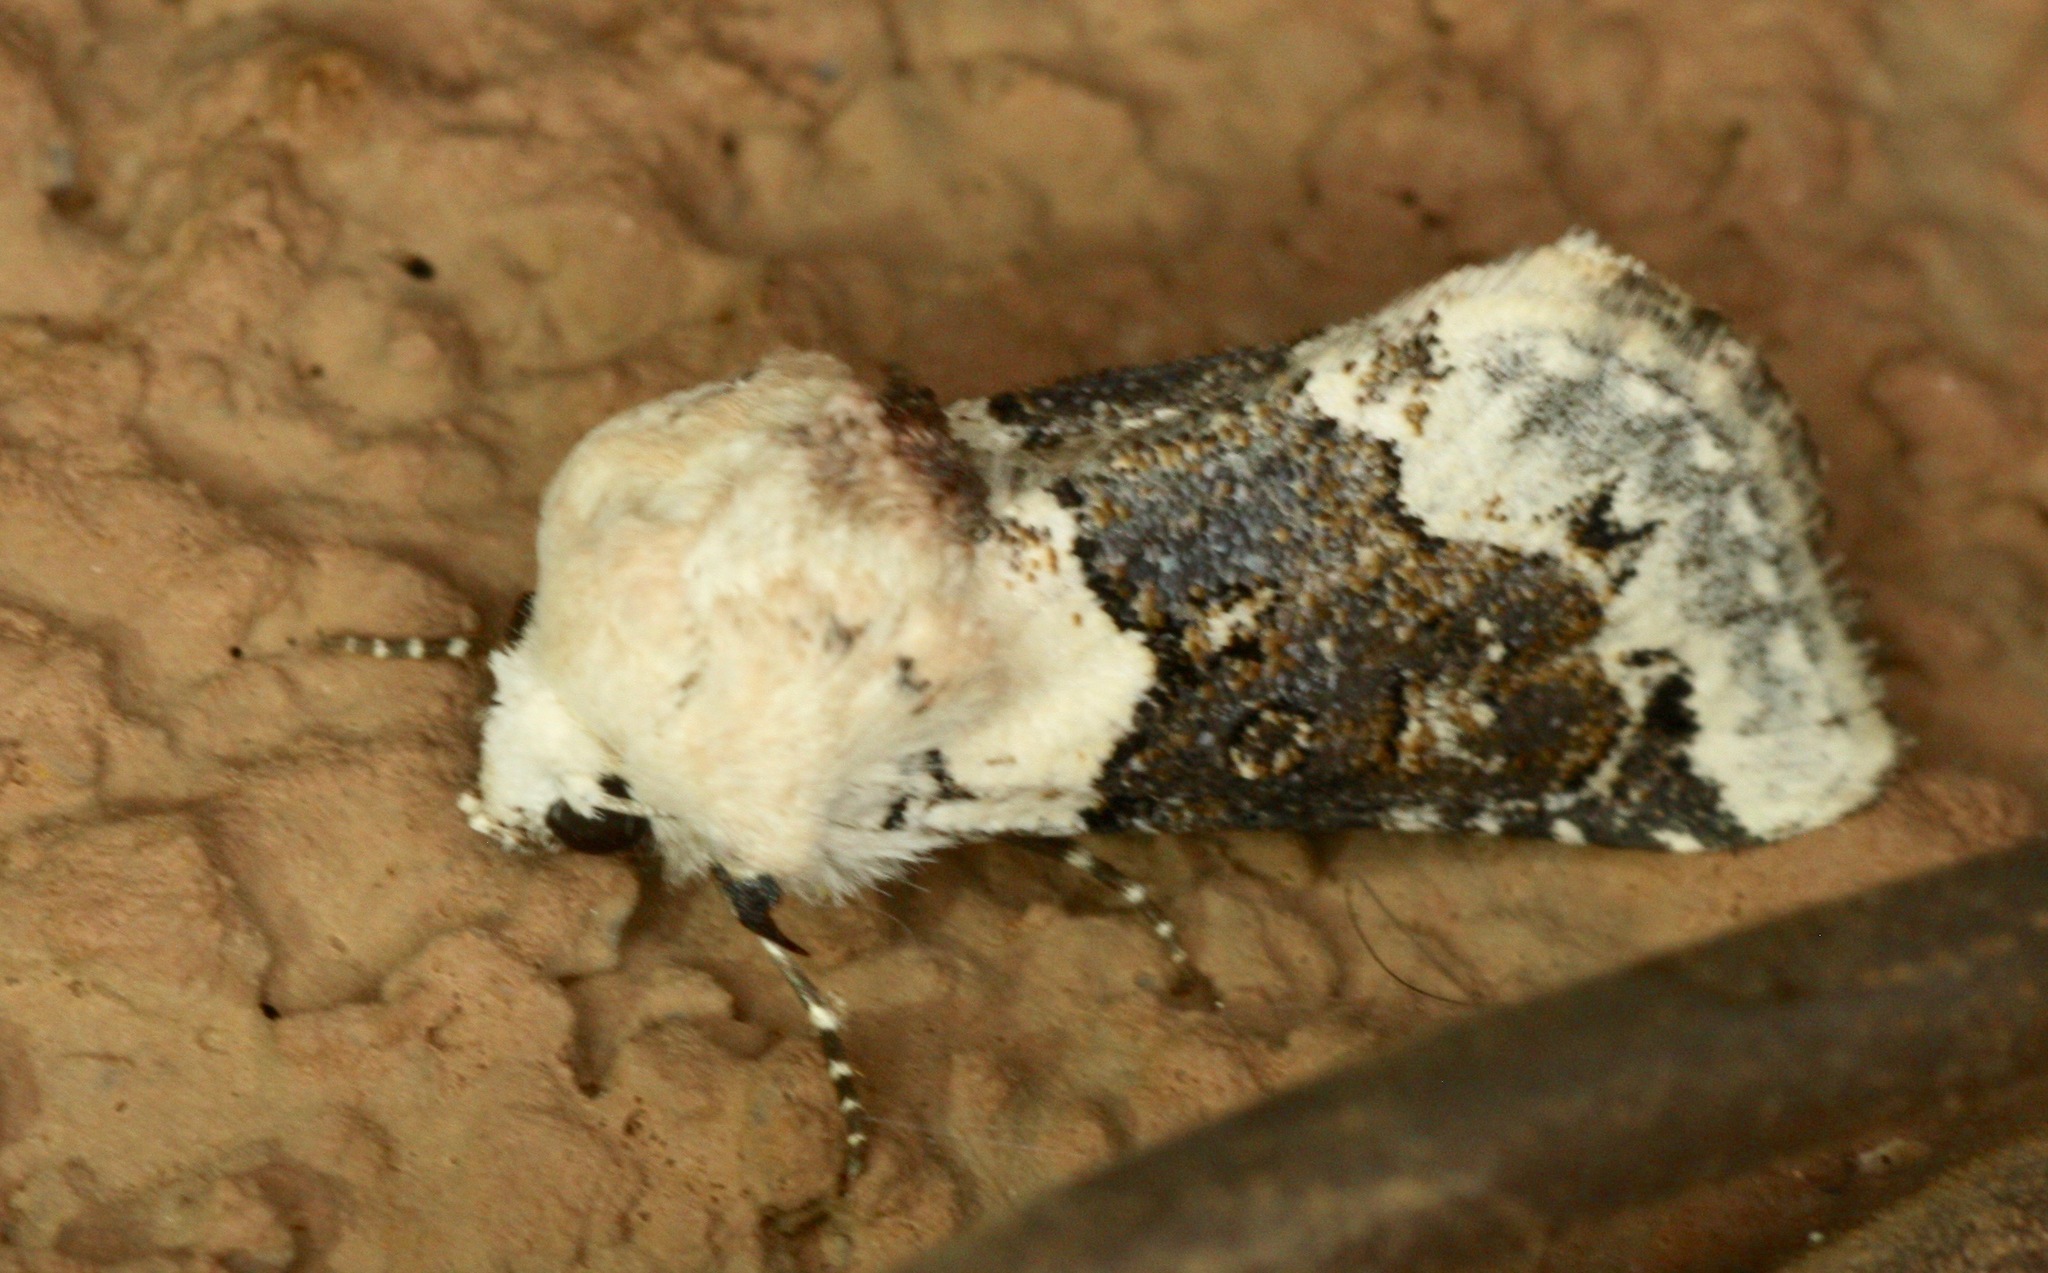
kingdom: Animalia
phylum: Arthropoda
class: Insecta
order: Lepidoptera
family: Noctuidae
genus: Triocnemis
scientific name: Triocnemis saporis
